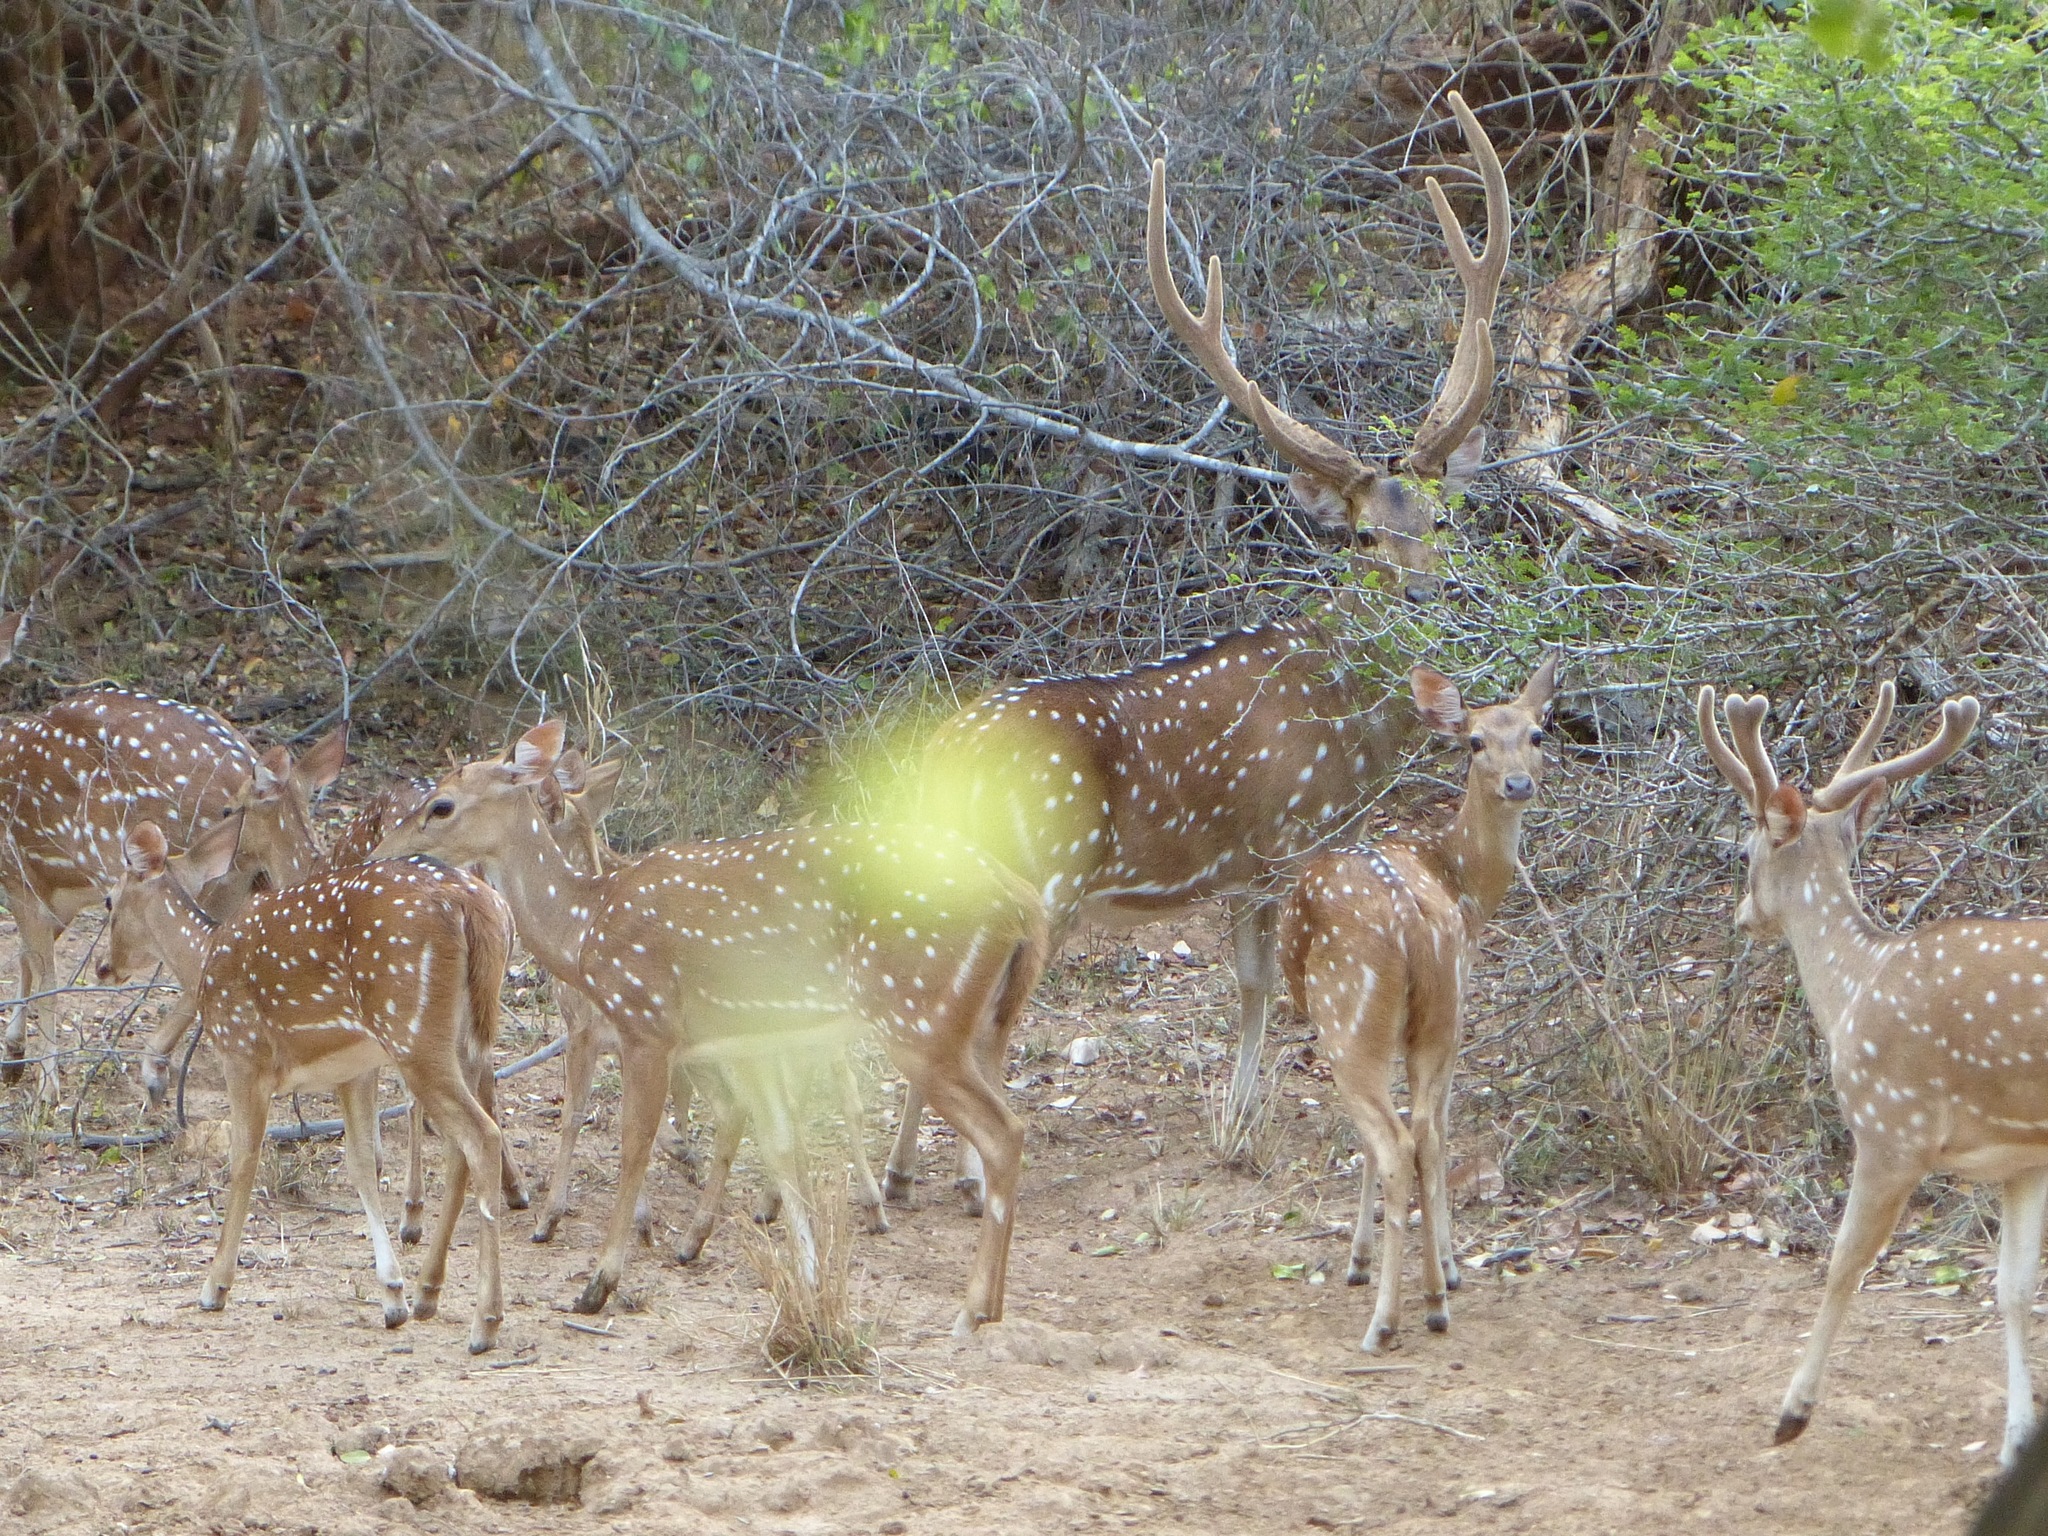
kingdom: Animalia
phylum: Chordata
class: Mammalia
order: Artiodactyla
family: Cervidae
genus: Axis
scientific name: Axis axis
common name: Chital
